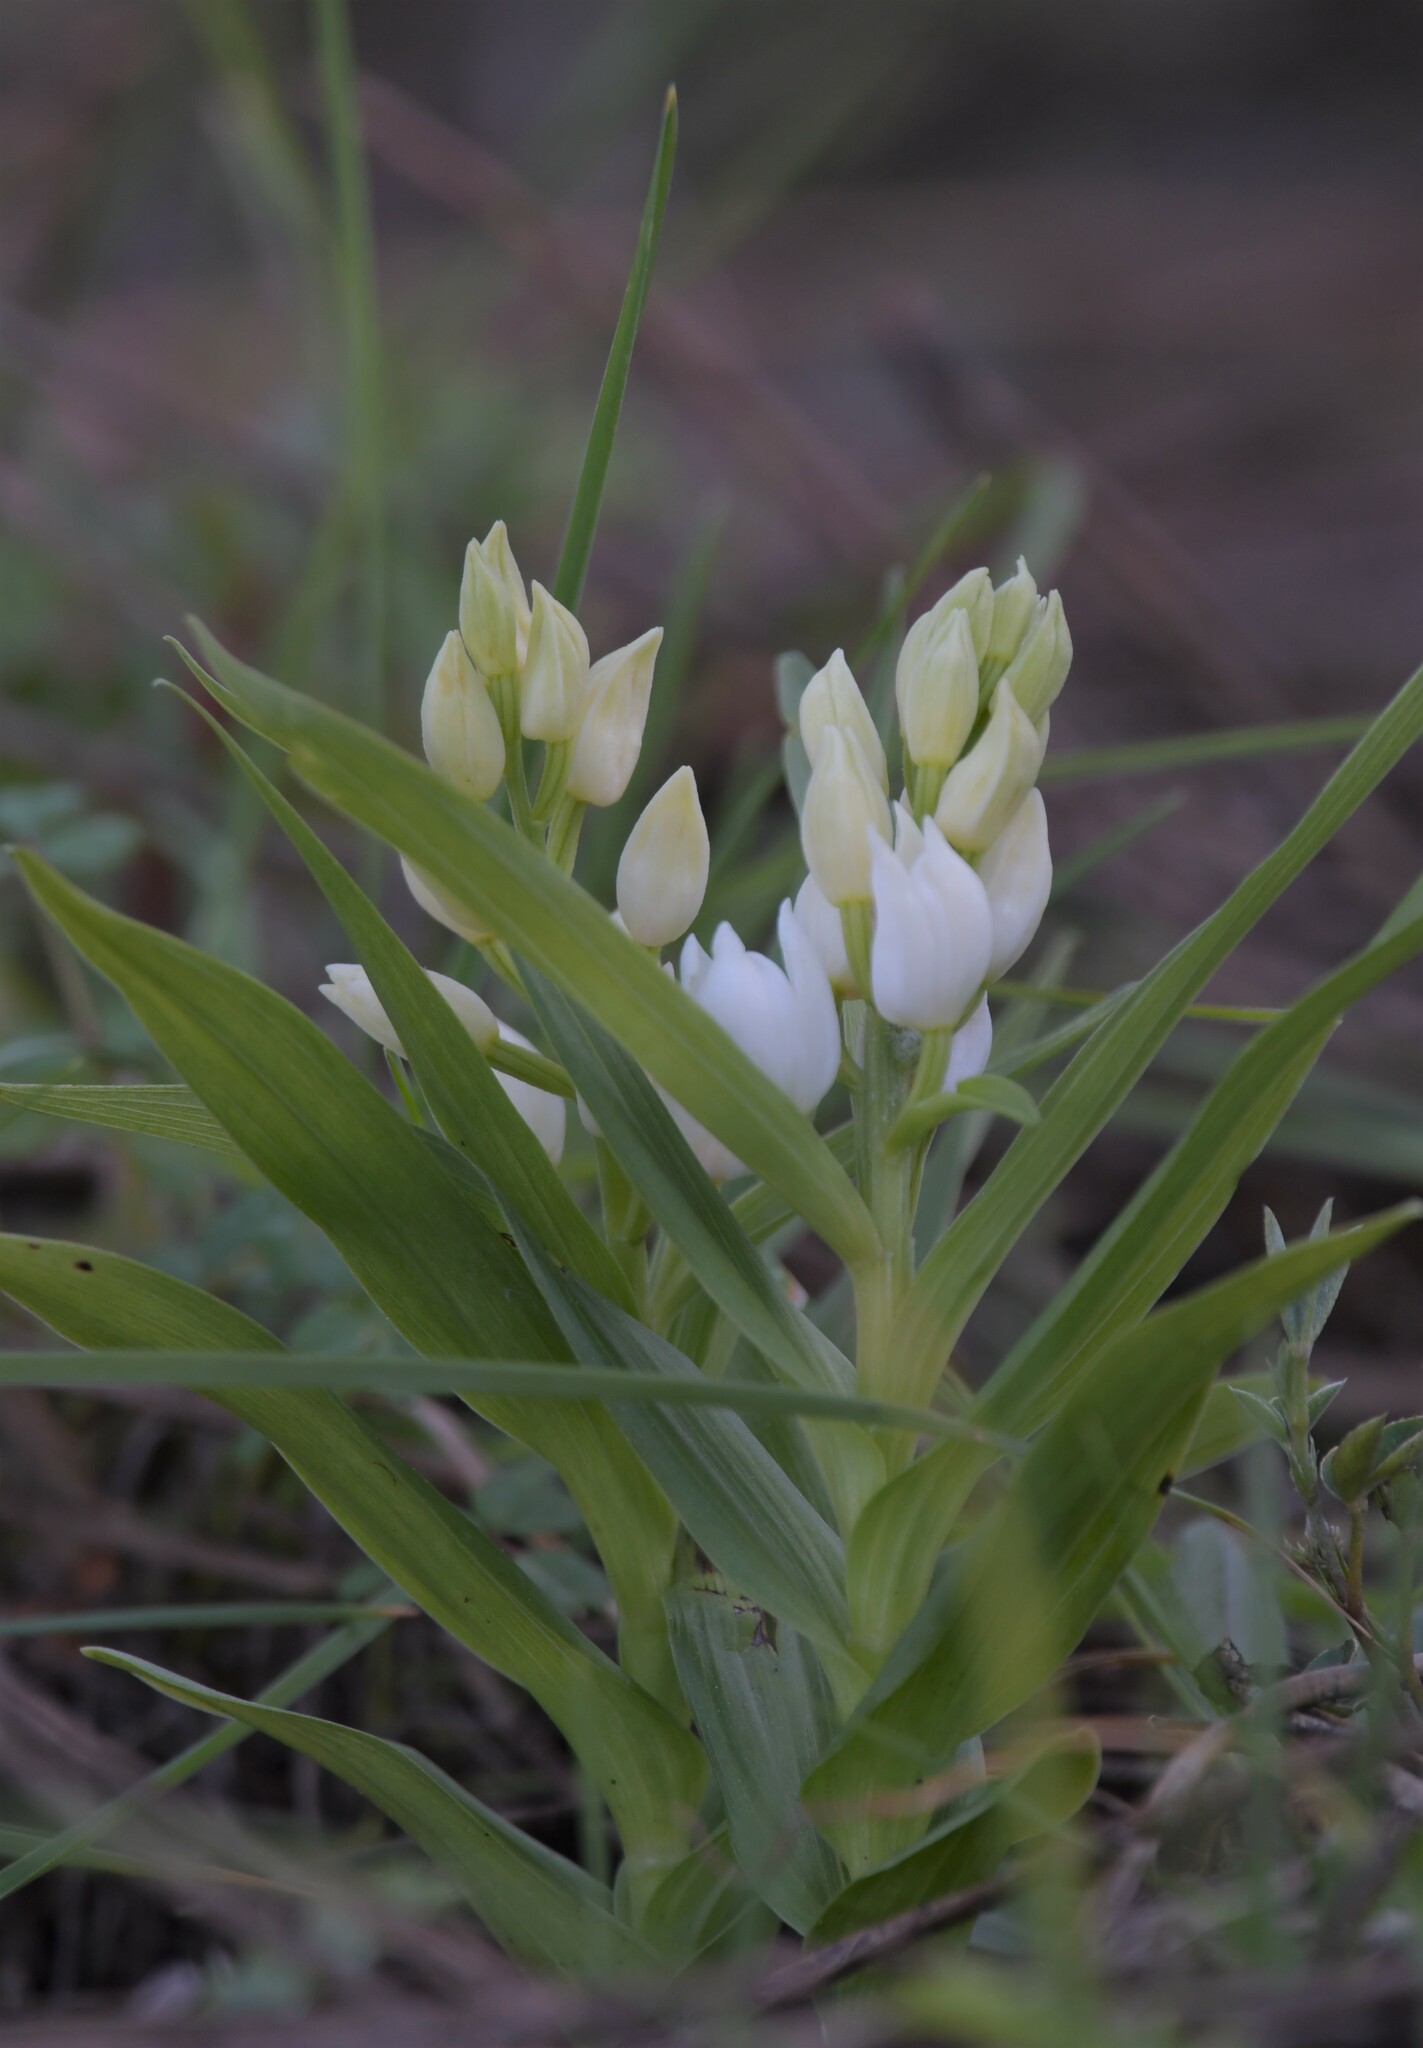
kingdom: Plantae
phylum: Tracheophyta
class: Liliopsida
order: Asparagales
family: Orchidaceae
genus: Cephalanthera
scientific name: Cephalanthera longifolia
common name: Narrow-leaved helleborine
